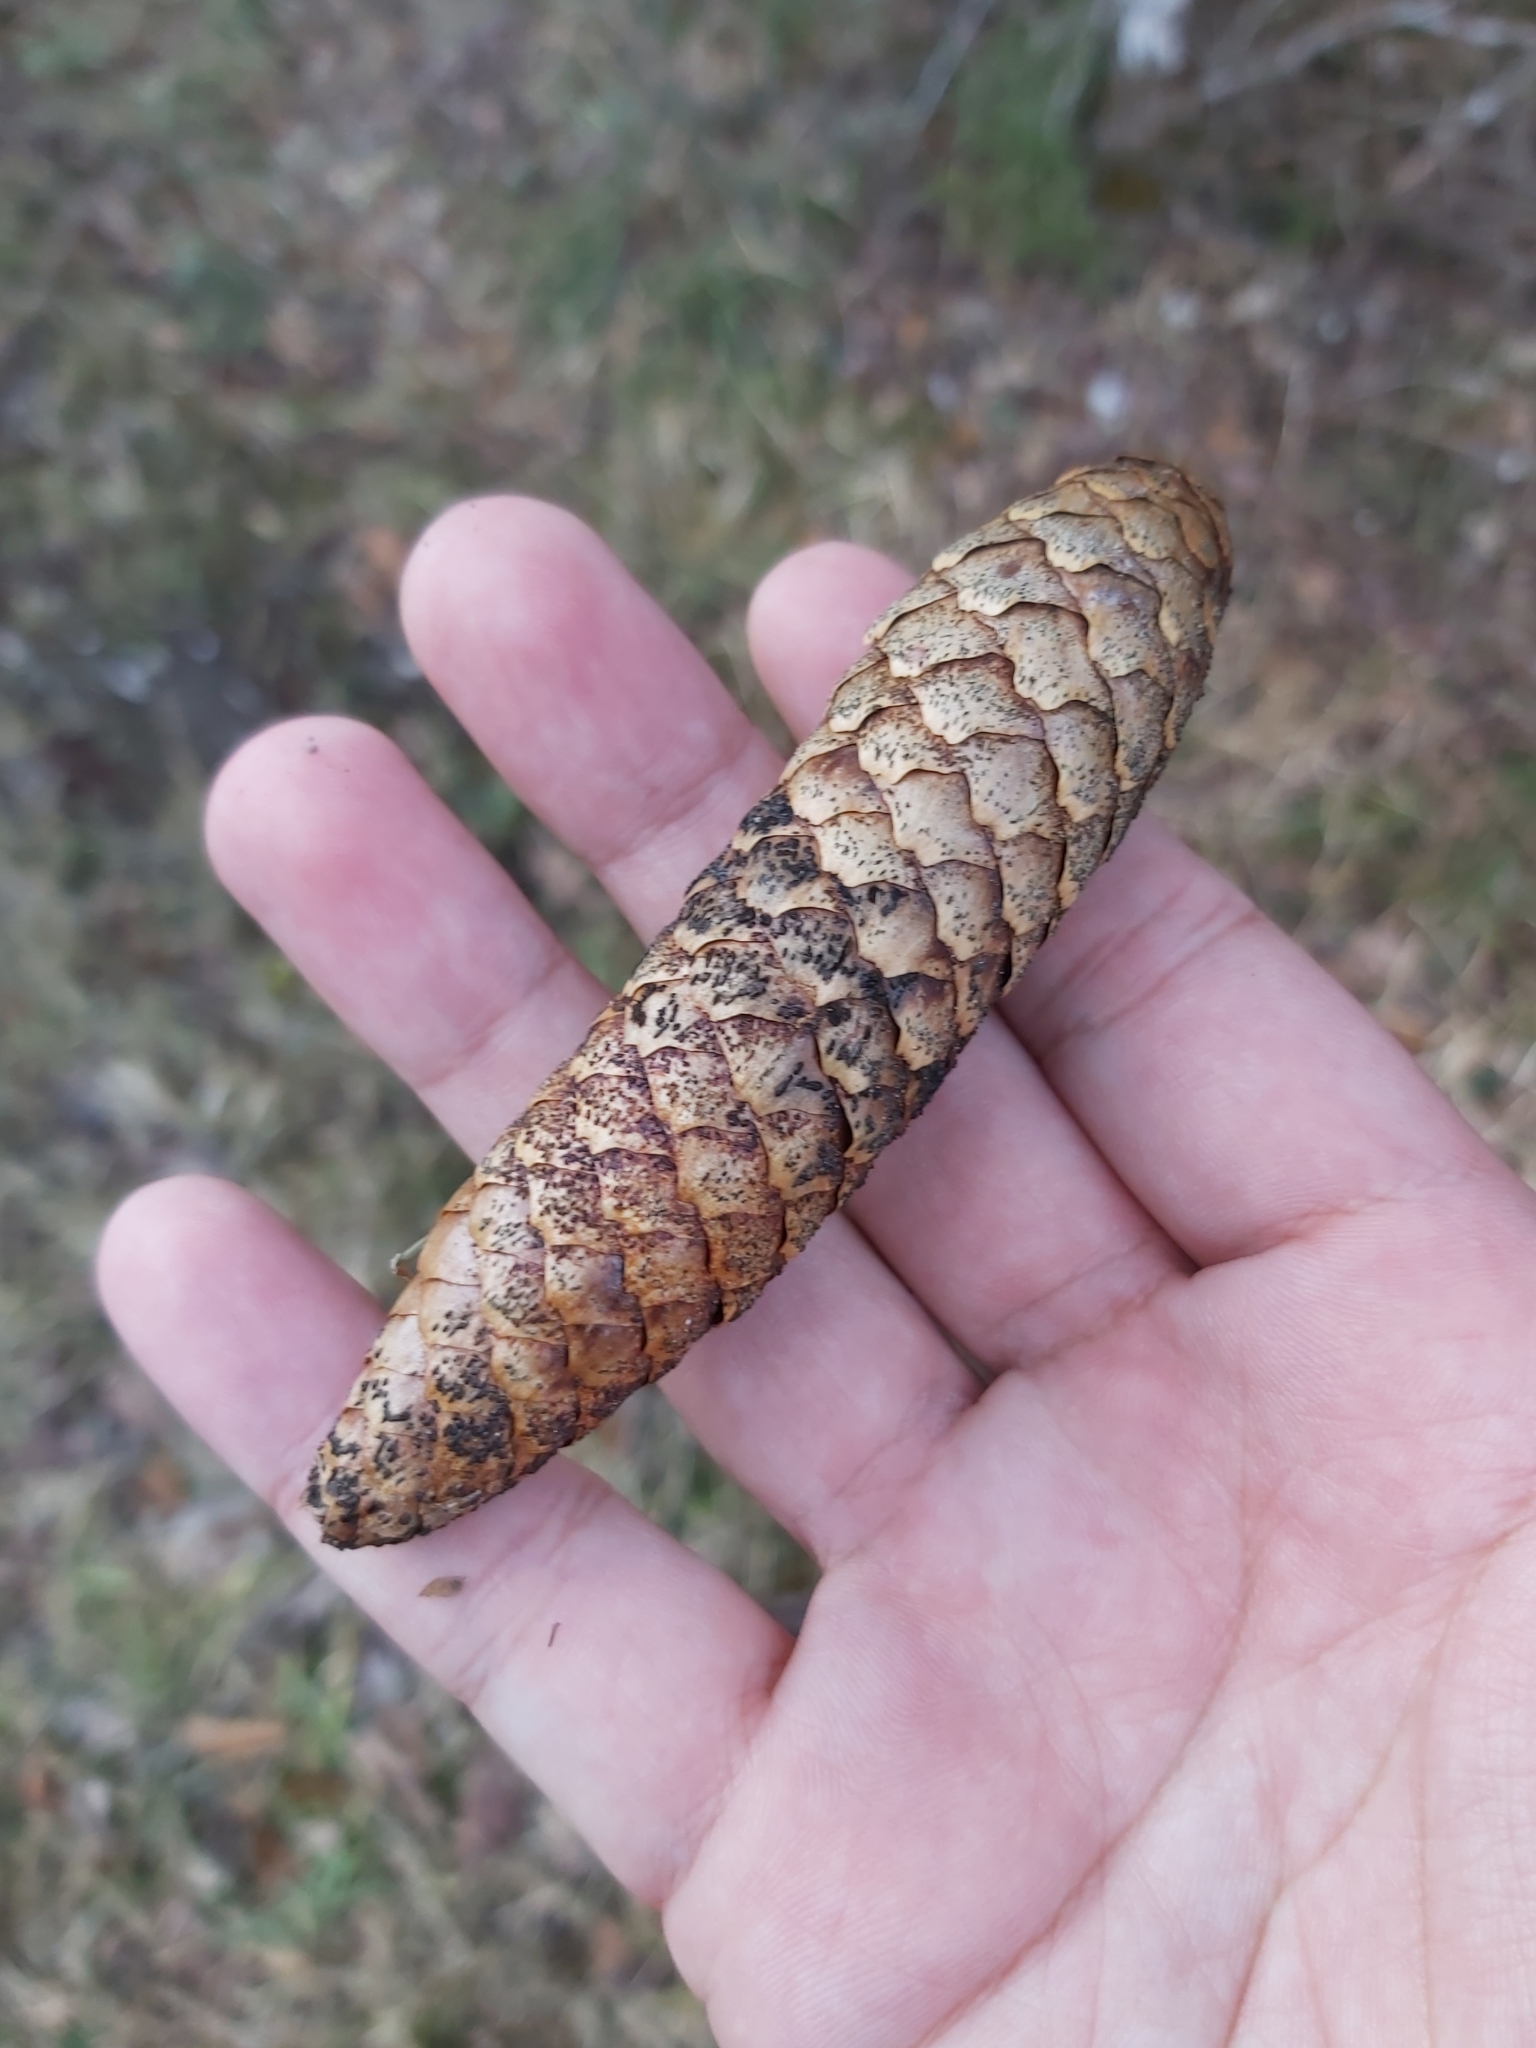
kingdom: Plantae
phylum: Tracheophyta
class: Pinopsida
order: Pinales
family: Pinaceae
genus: Picea
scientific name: Picea abies
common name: Norway spruce
